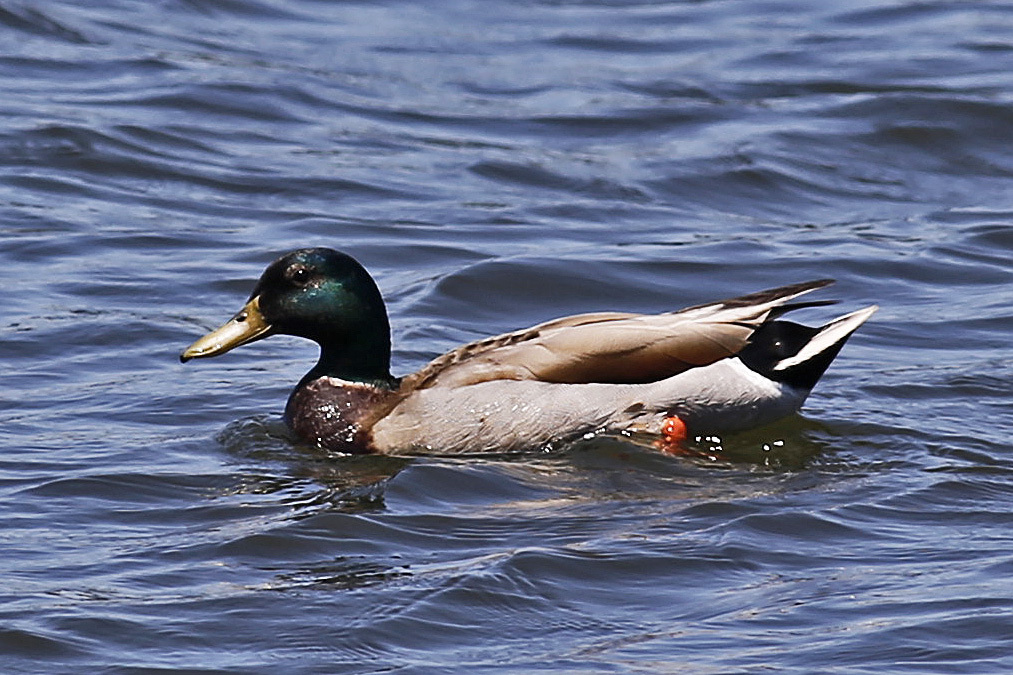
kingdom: Animalia
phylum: Chordata
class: Aves
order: Anseriformes
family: Anatidae
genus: Anas
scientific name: Anas platyrhynchos
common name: Mallard
